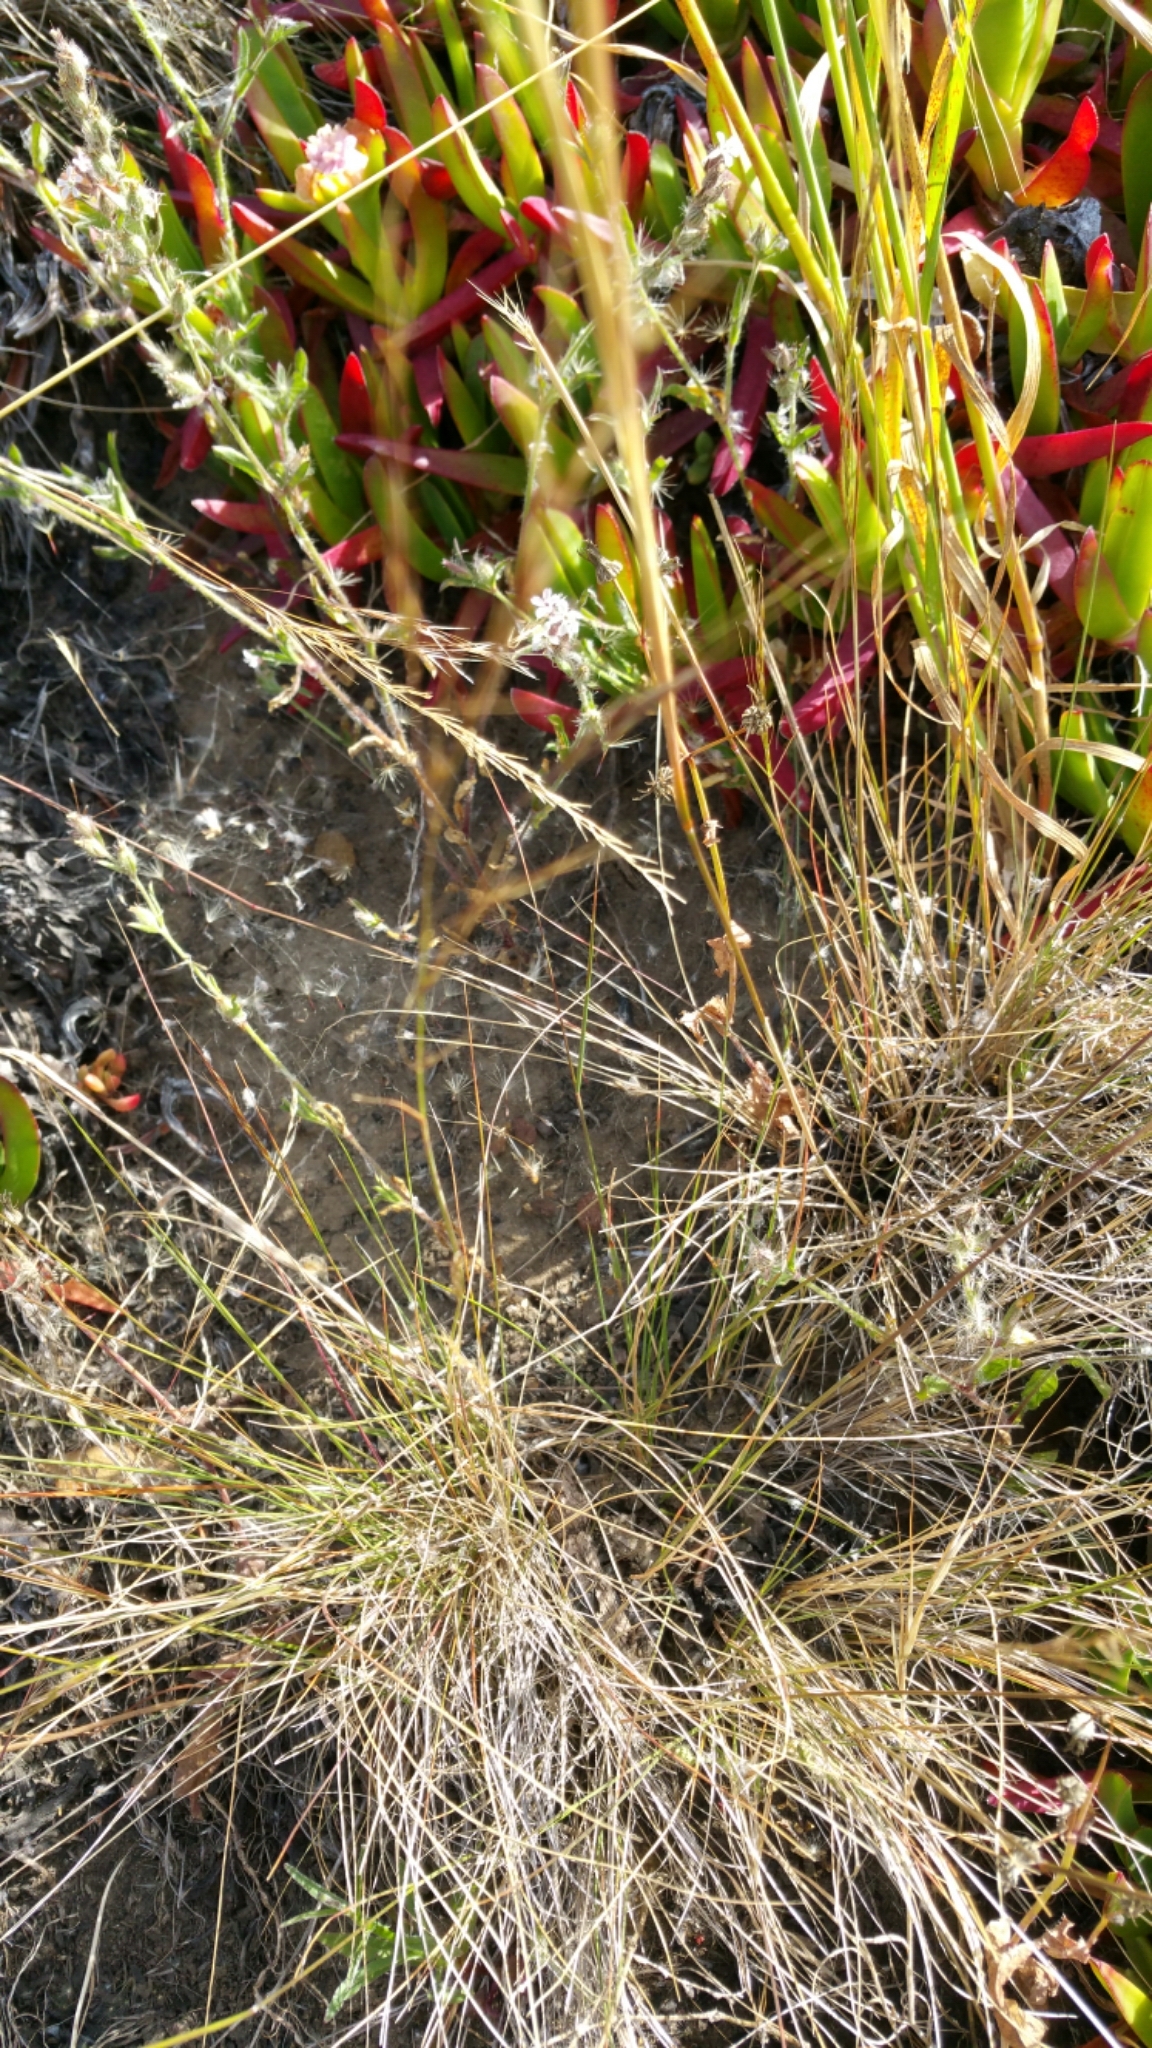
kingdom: Plantae
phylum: Tracheophyta
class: Liliopsida
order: Poales
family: Poaceae
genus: Nassella
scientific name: Nassella lepida
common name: Foothill needlegrass
